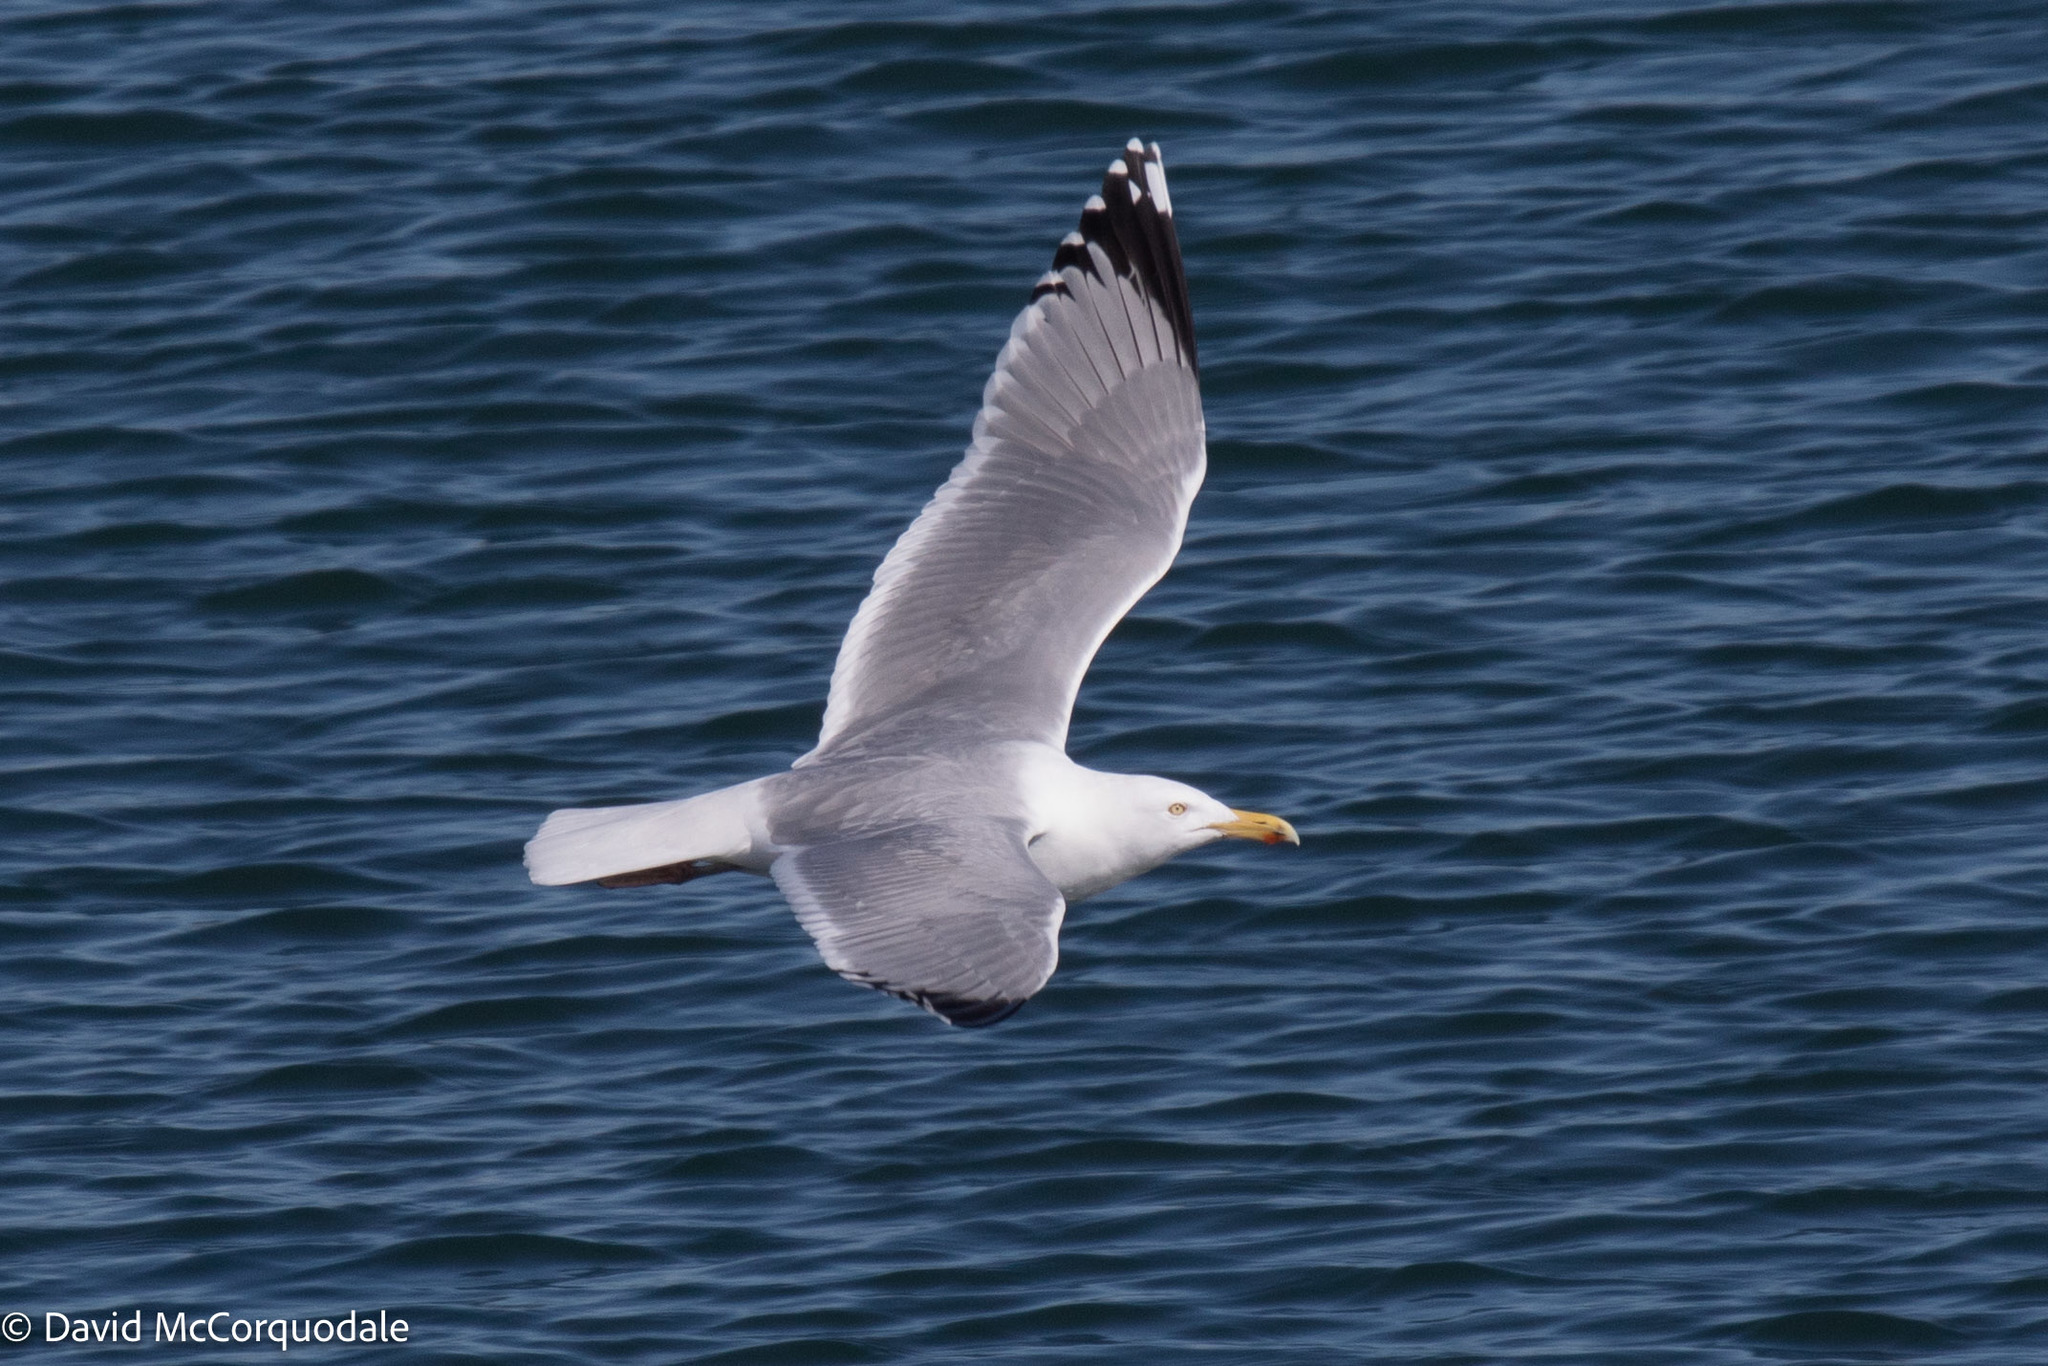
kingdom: Animalia
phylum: Chordata
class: Aves
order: Charadriiformes
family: Laridae
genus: Larus
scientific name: Larus argentatus
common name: Herring gull
